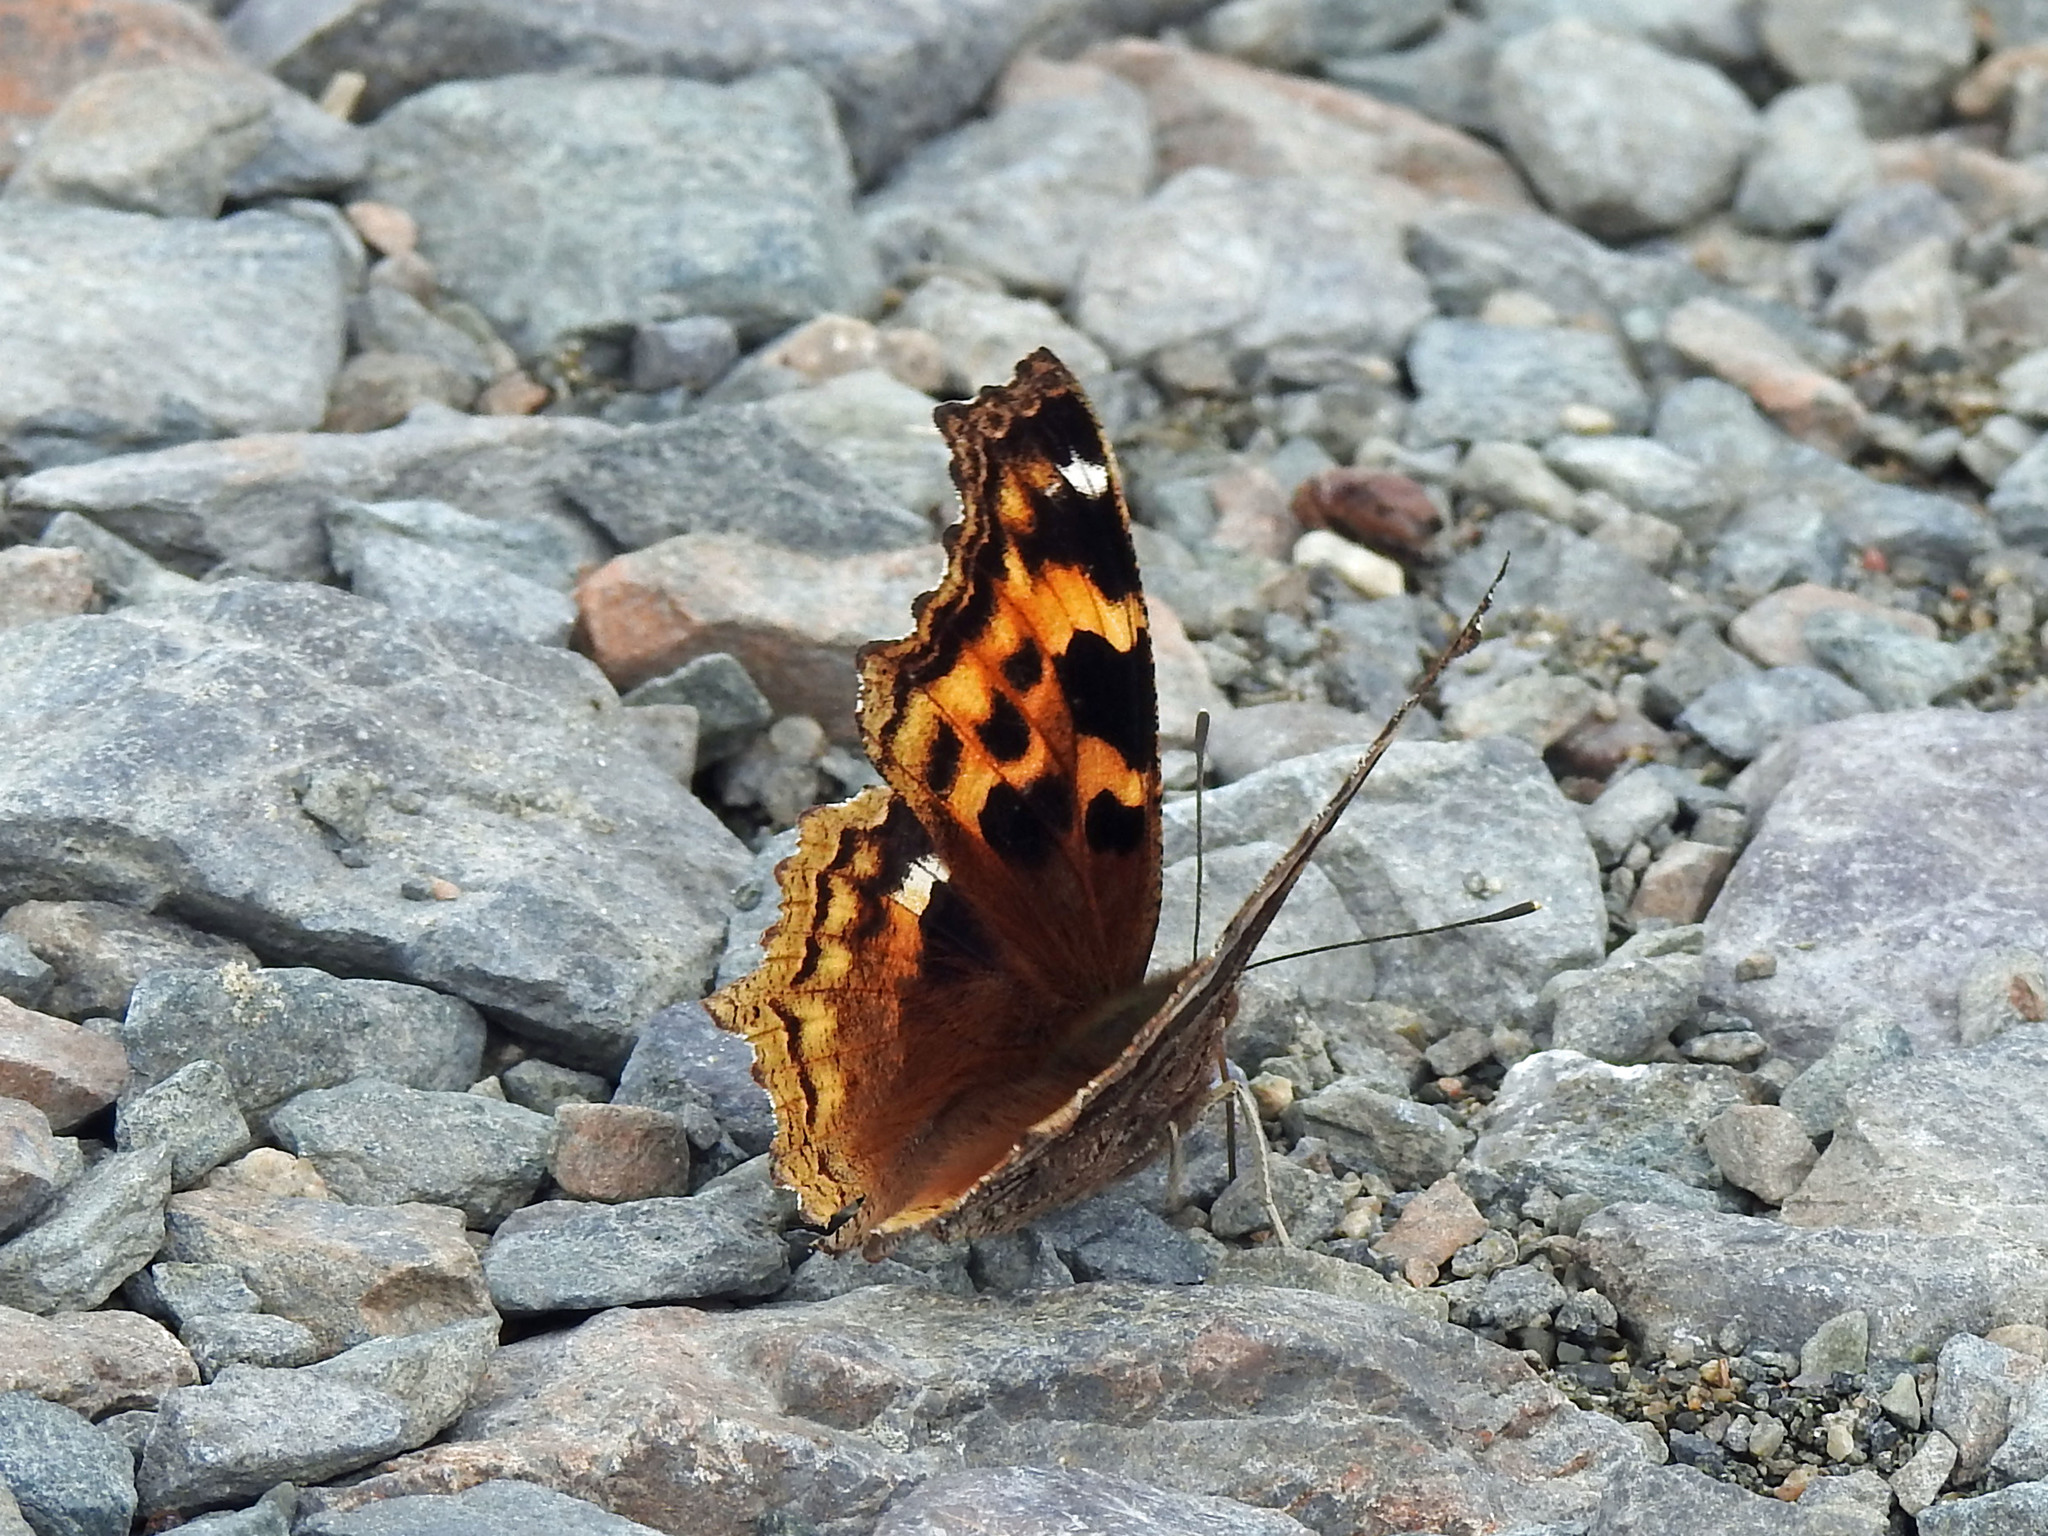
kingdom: Animalia
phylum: Arthropoda
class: Insecta
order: Lepidoptera
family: Nymphalidae
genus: Polygonia
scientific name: Polygonia vaualbum
